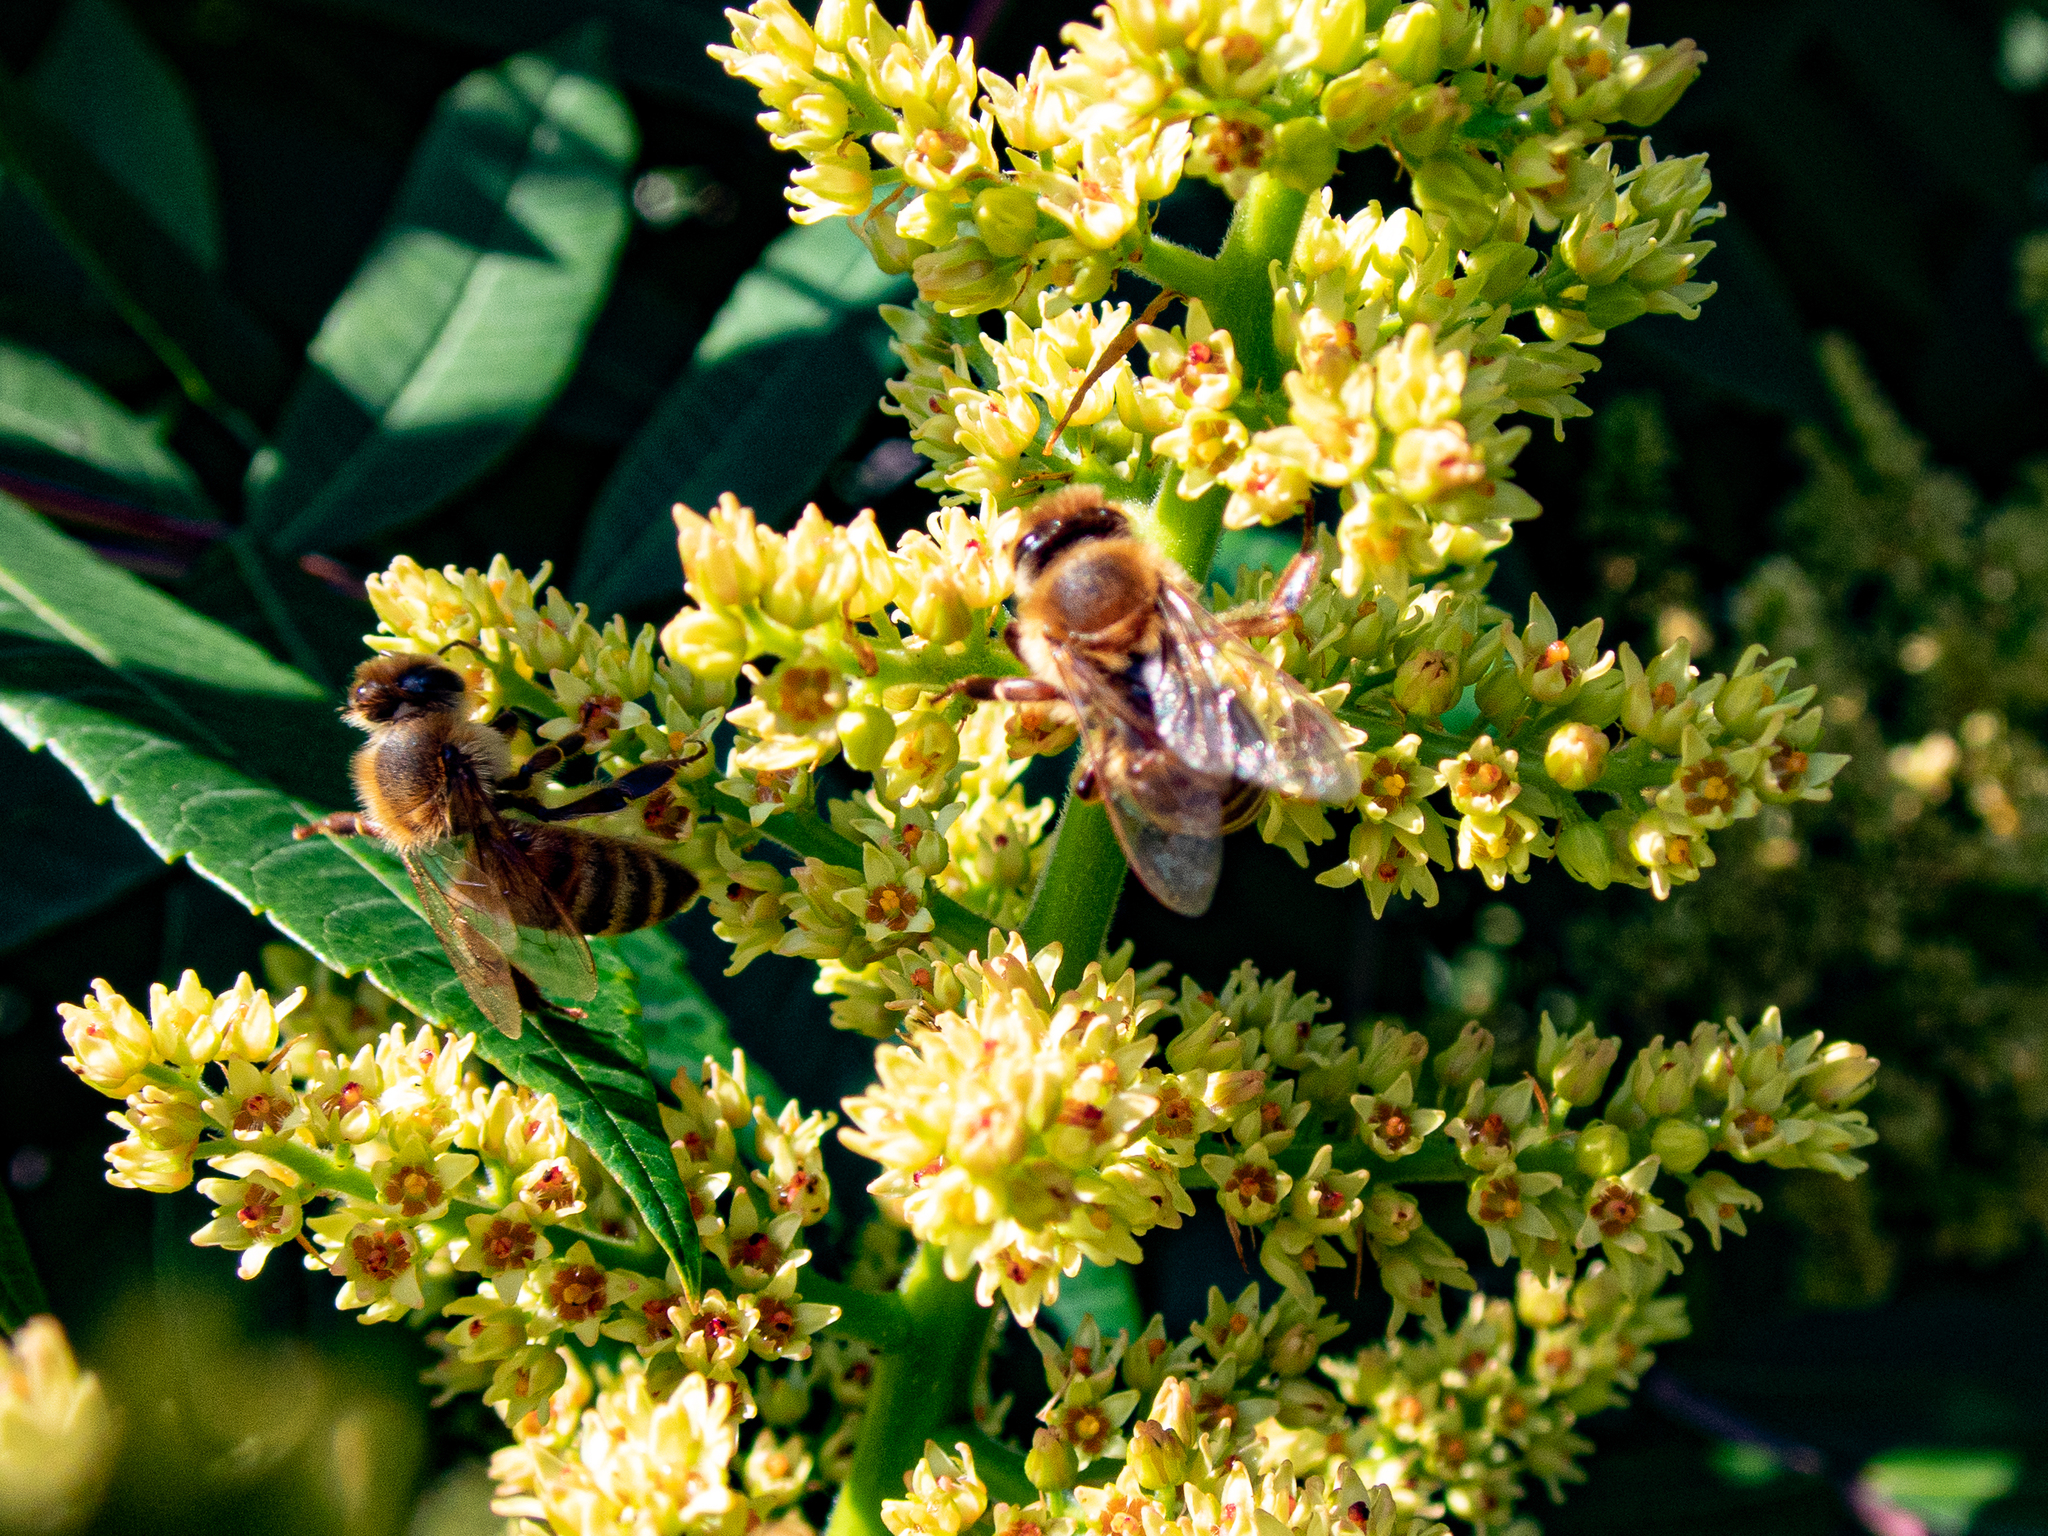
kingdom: Animalia
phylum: Arthropoda
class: Insecta
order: Hymenoptera
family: Apidae
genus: Apis
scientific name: Apis mellifera
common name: Honey bee
